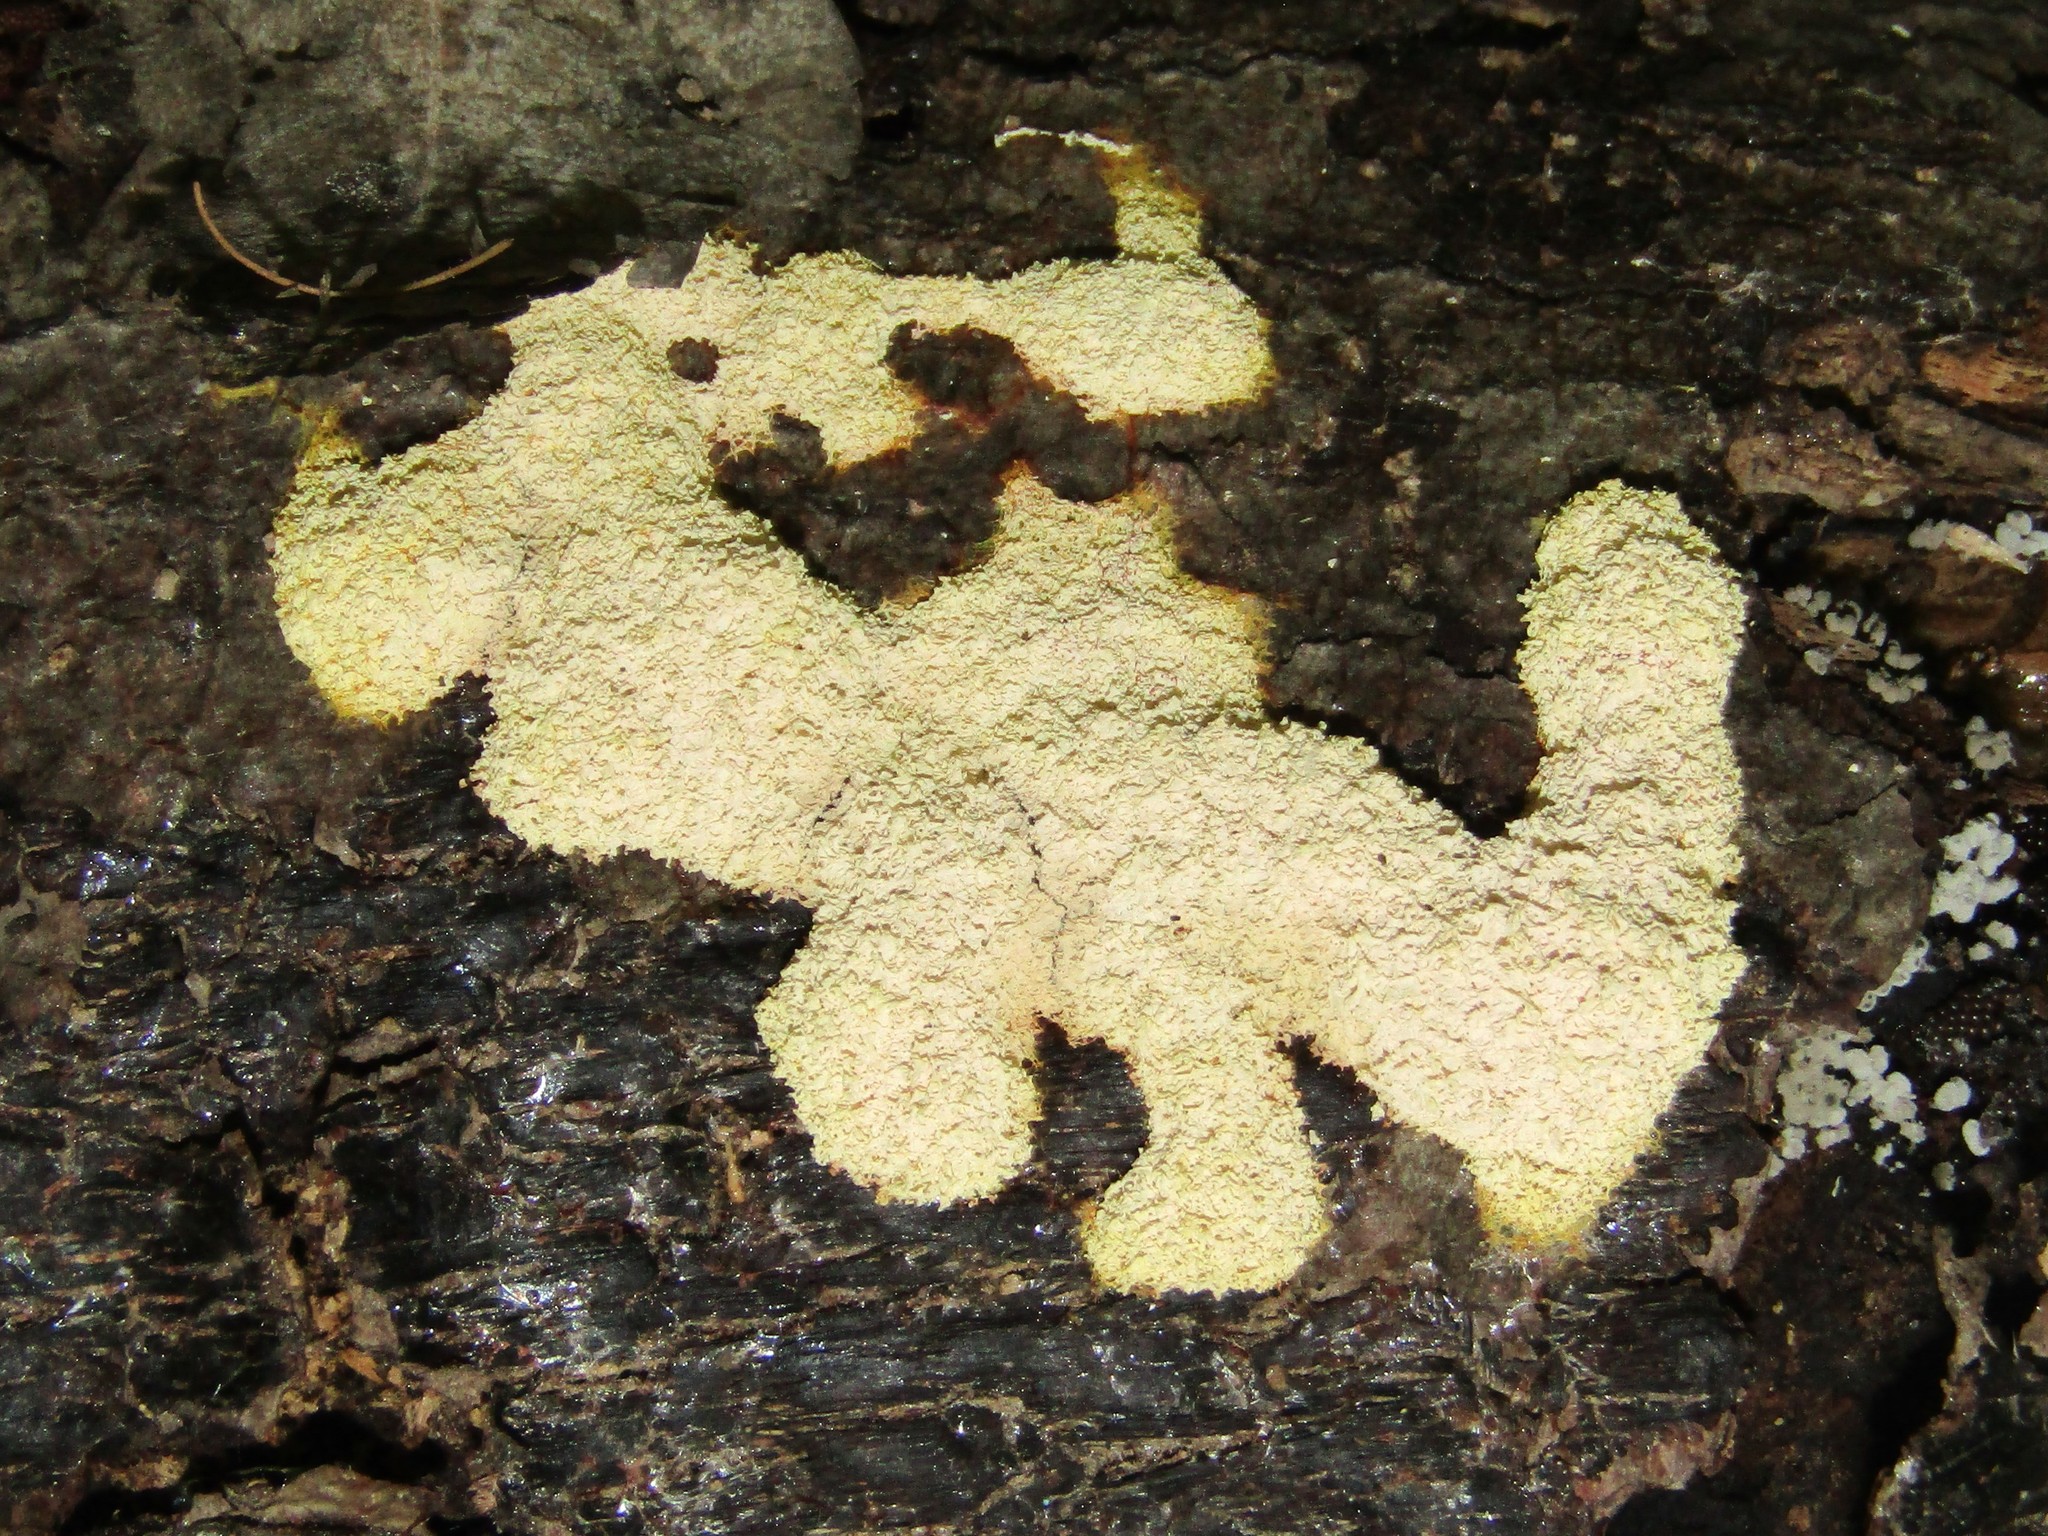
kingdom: Protozoa
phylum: Mycetozoa
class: Myxomycetes
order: Physarales
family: Physaraceae
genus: Fuligo
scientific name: Fuligo septica
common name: Dog vomit slime mold
